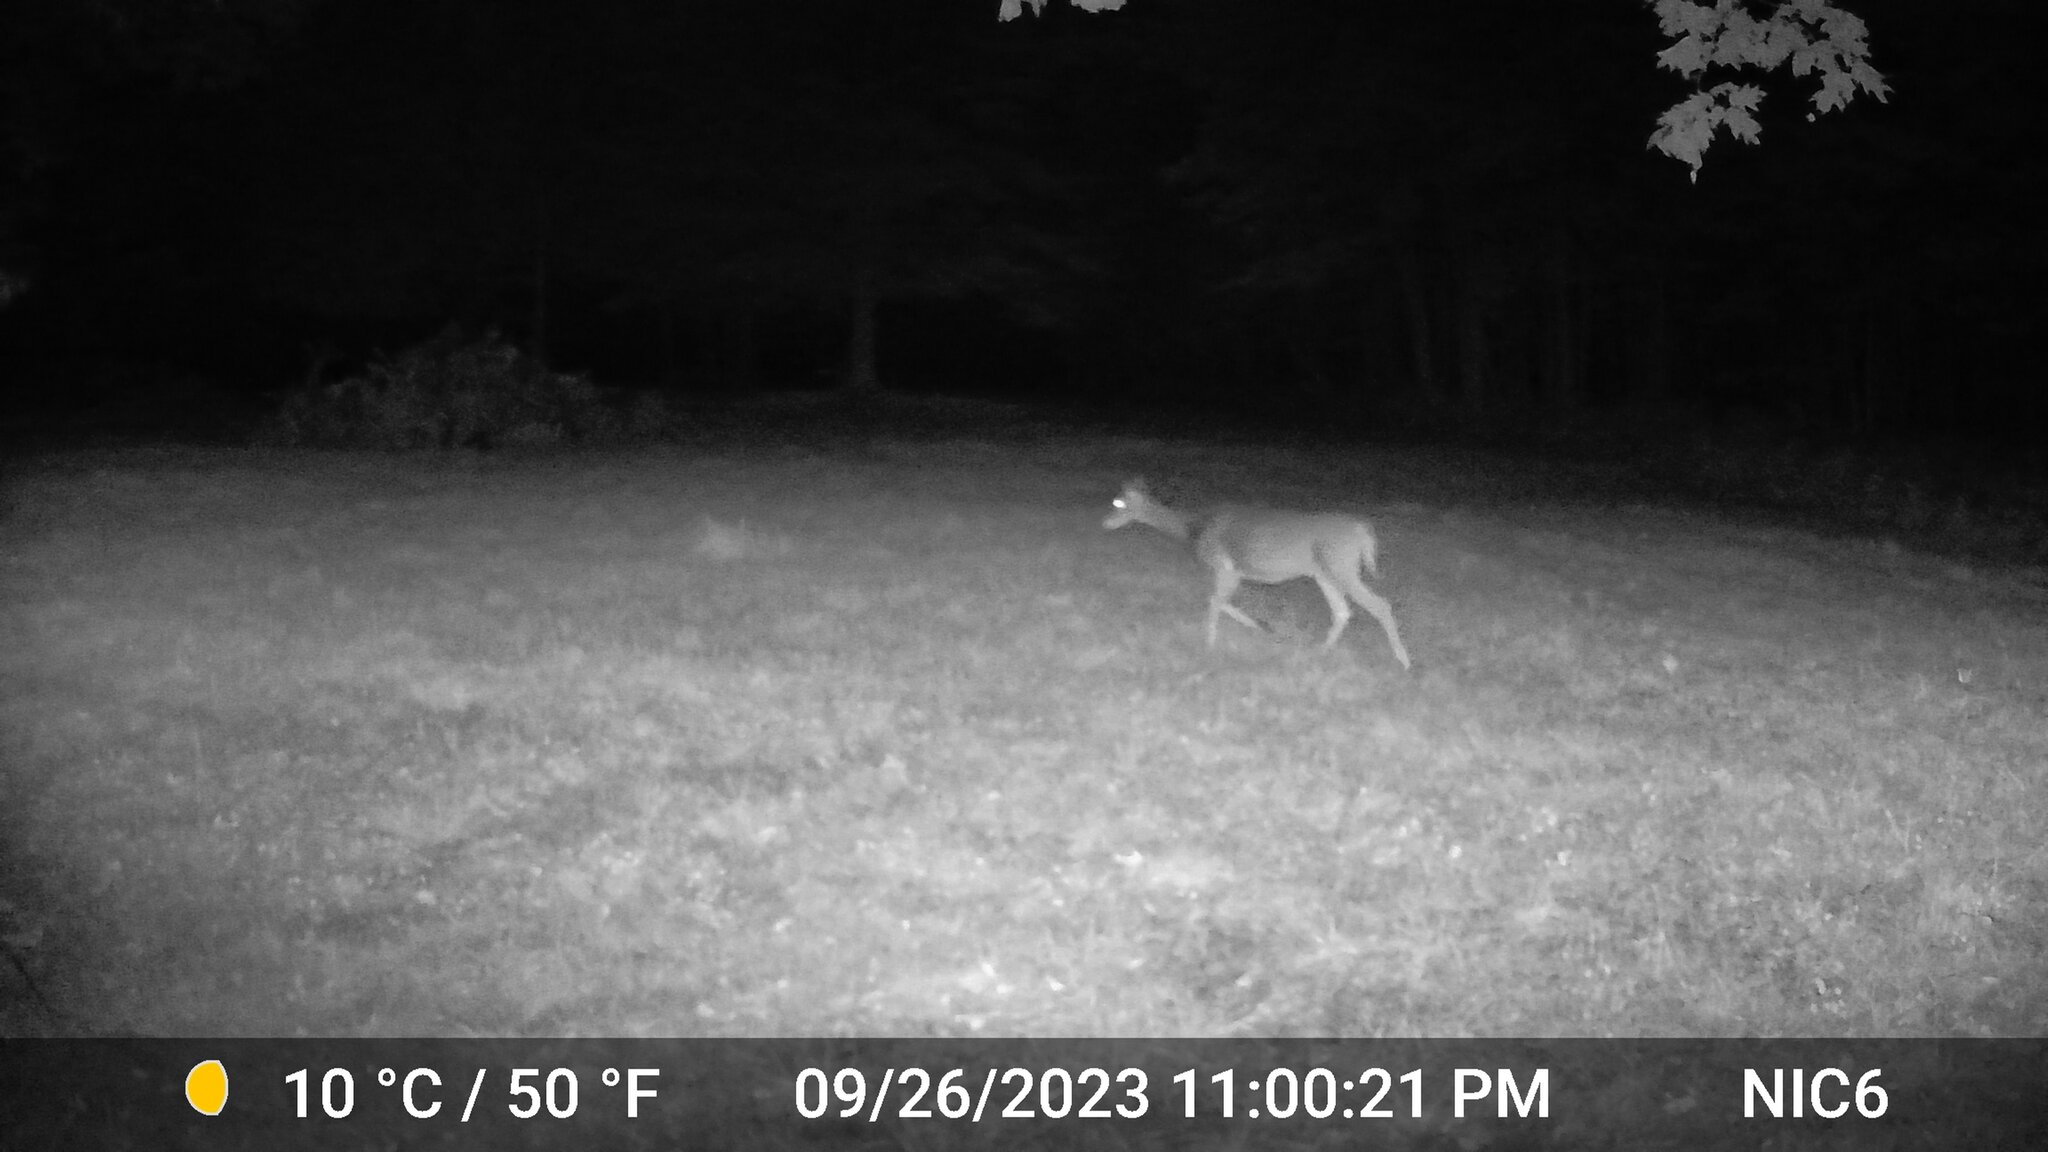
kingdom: Animalia
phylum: Chordata
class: Mammalia
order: Artiodactyla
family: Cervidae
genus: Odocoileus
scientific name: Odocoileus virginianus
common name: White-tailed deer
